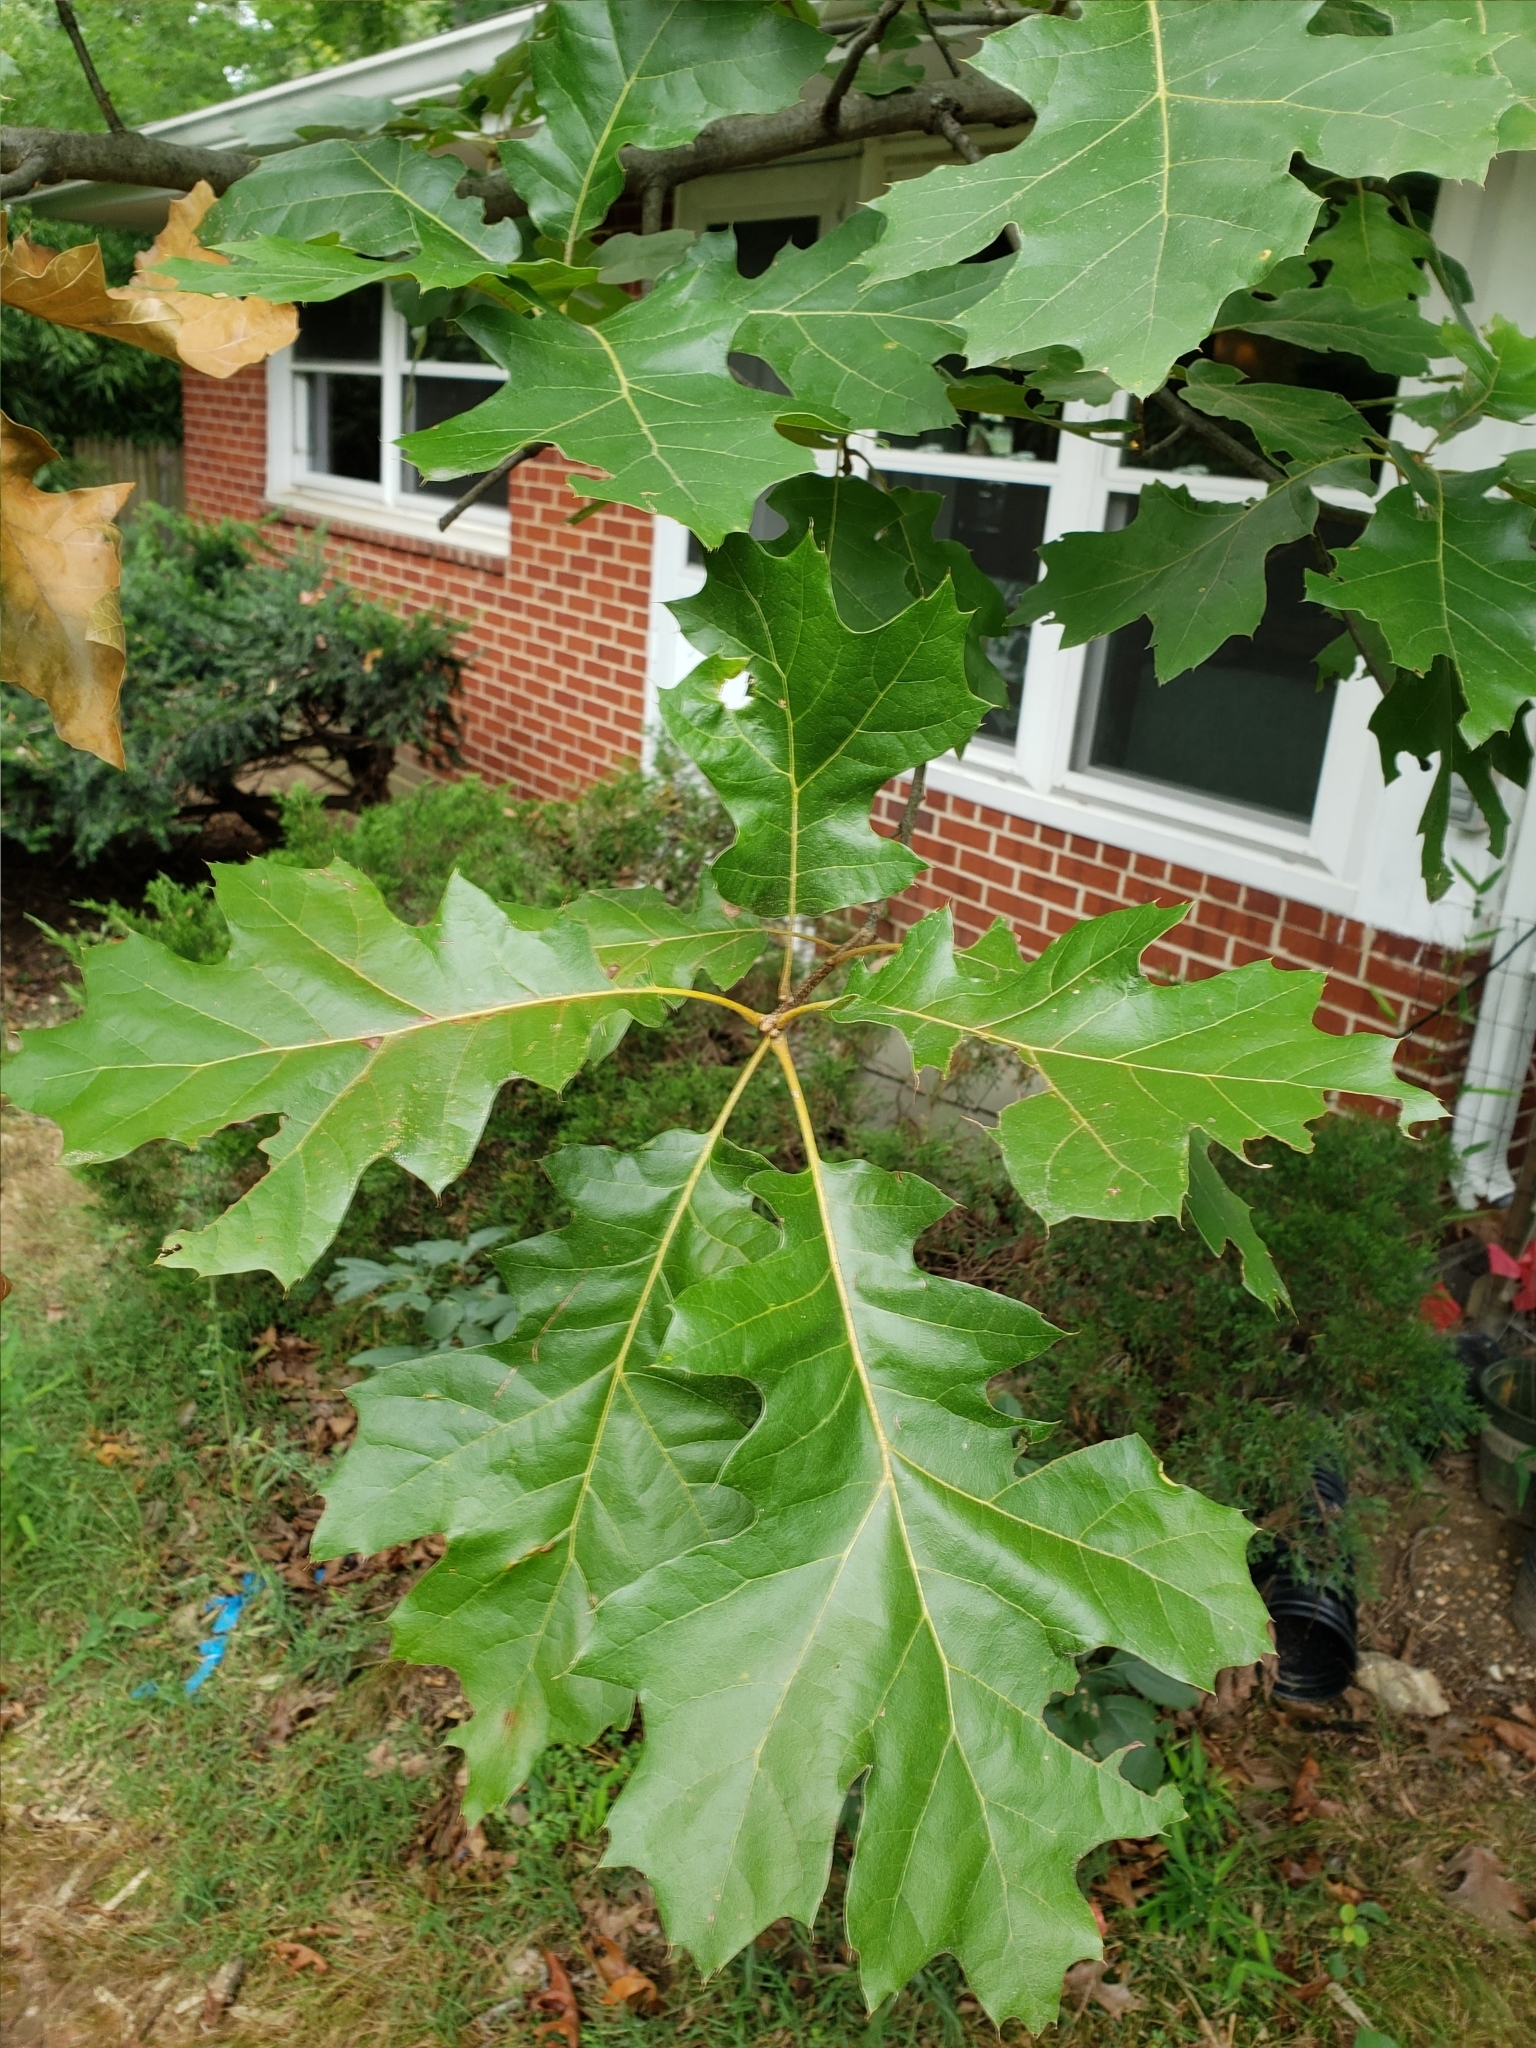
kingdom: Plantae
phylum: Tracheophyta
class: Magnoliopsida
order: Fagales
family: Fagaceae
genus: Quercus
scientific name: Quercus velutina
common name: Black oak
